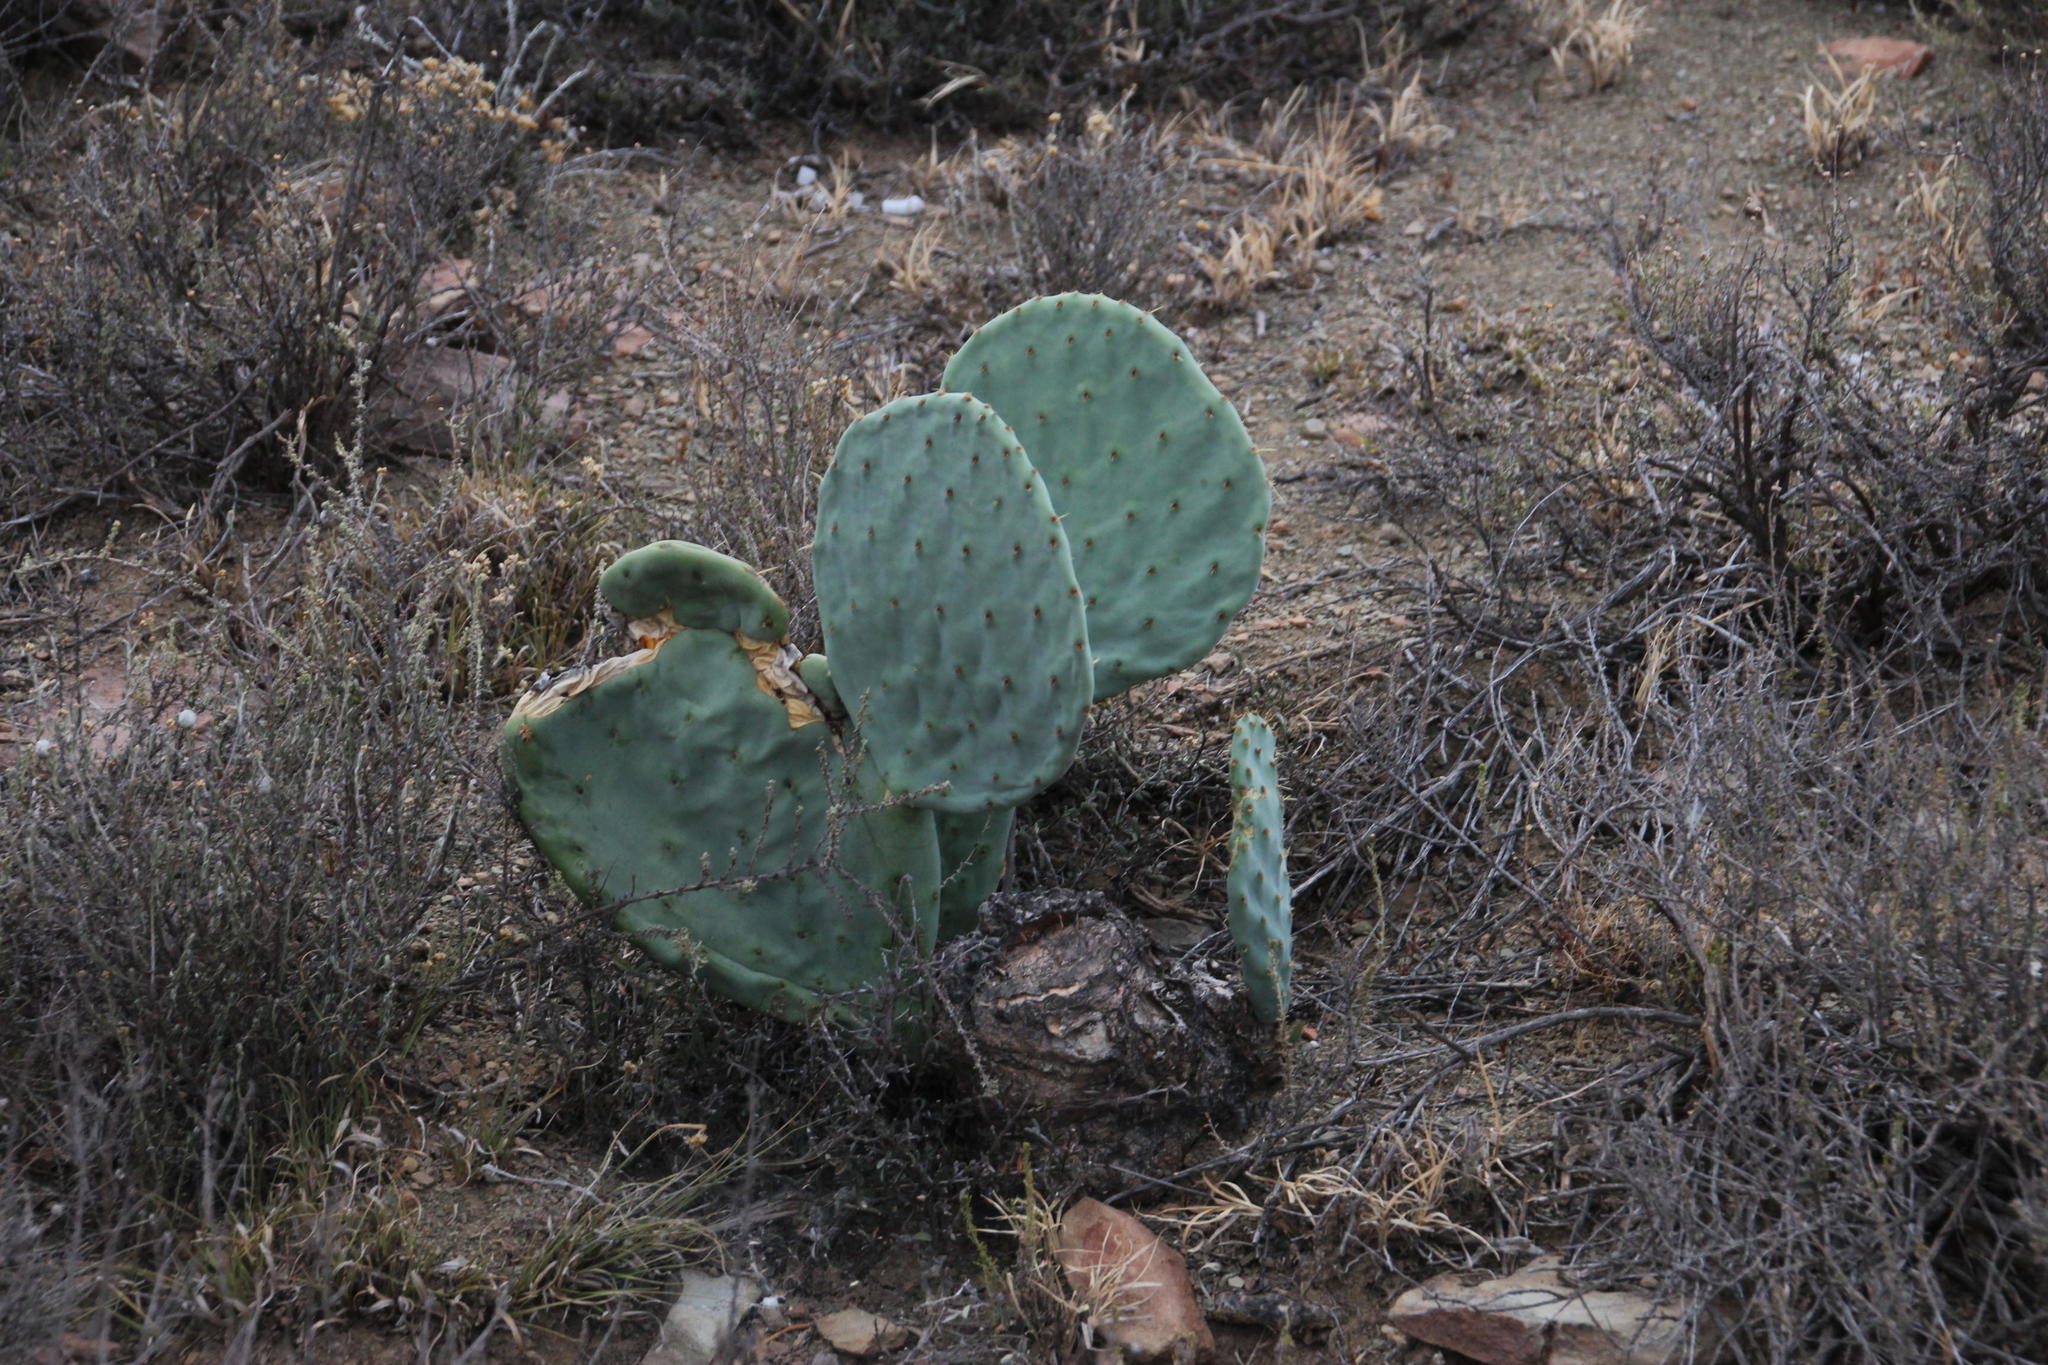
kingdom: Plantae
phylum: Tracheophyta
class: Magnoliopsida
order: Caryophyllales
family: Cactaceae
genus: Opuntia
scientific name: Opuntia robusta
